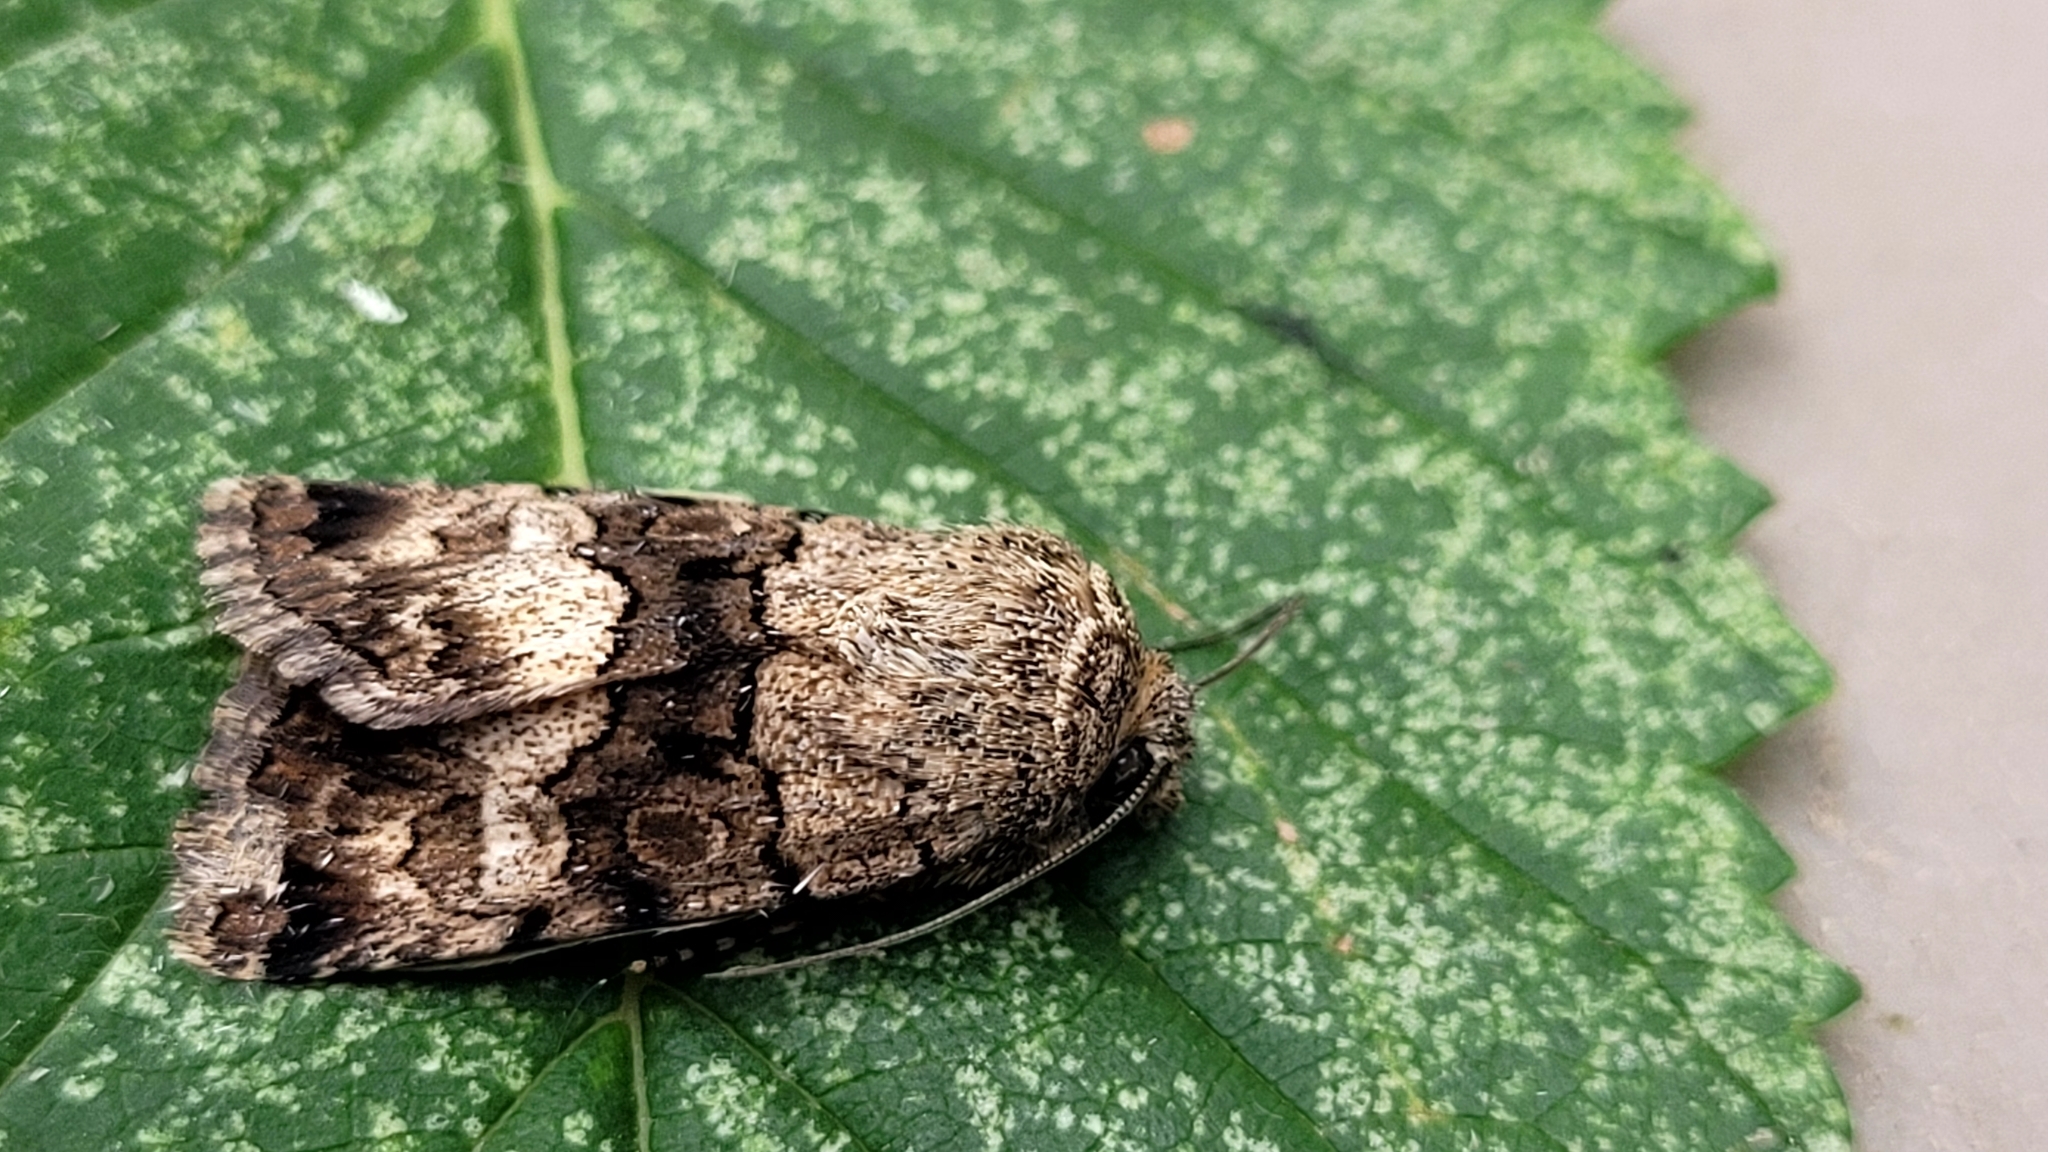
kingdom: Animalia
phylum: Arthropoda
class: Insecta
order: Lepidoptera
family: Noctuidae
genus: Sympistis
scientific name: Sympistis albifasciata
